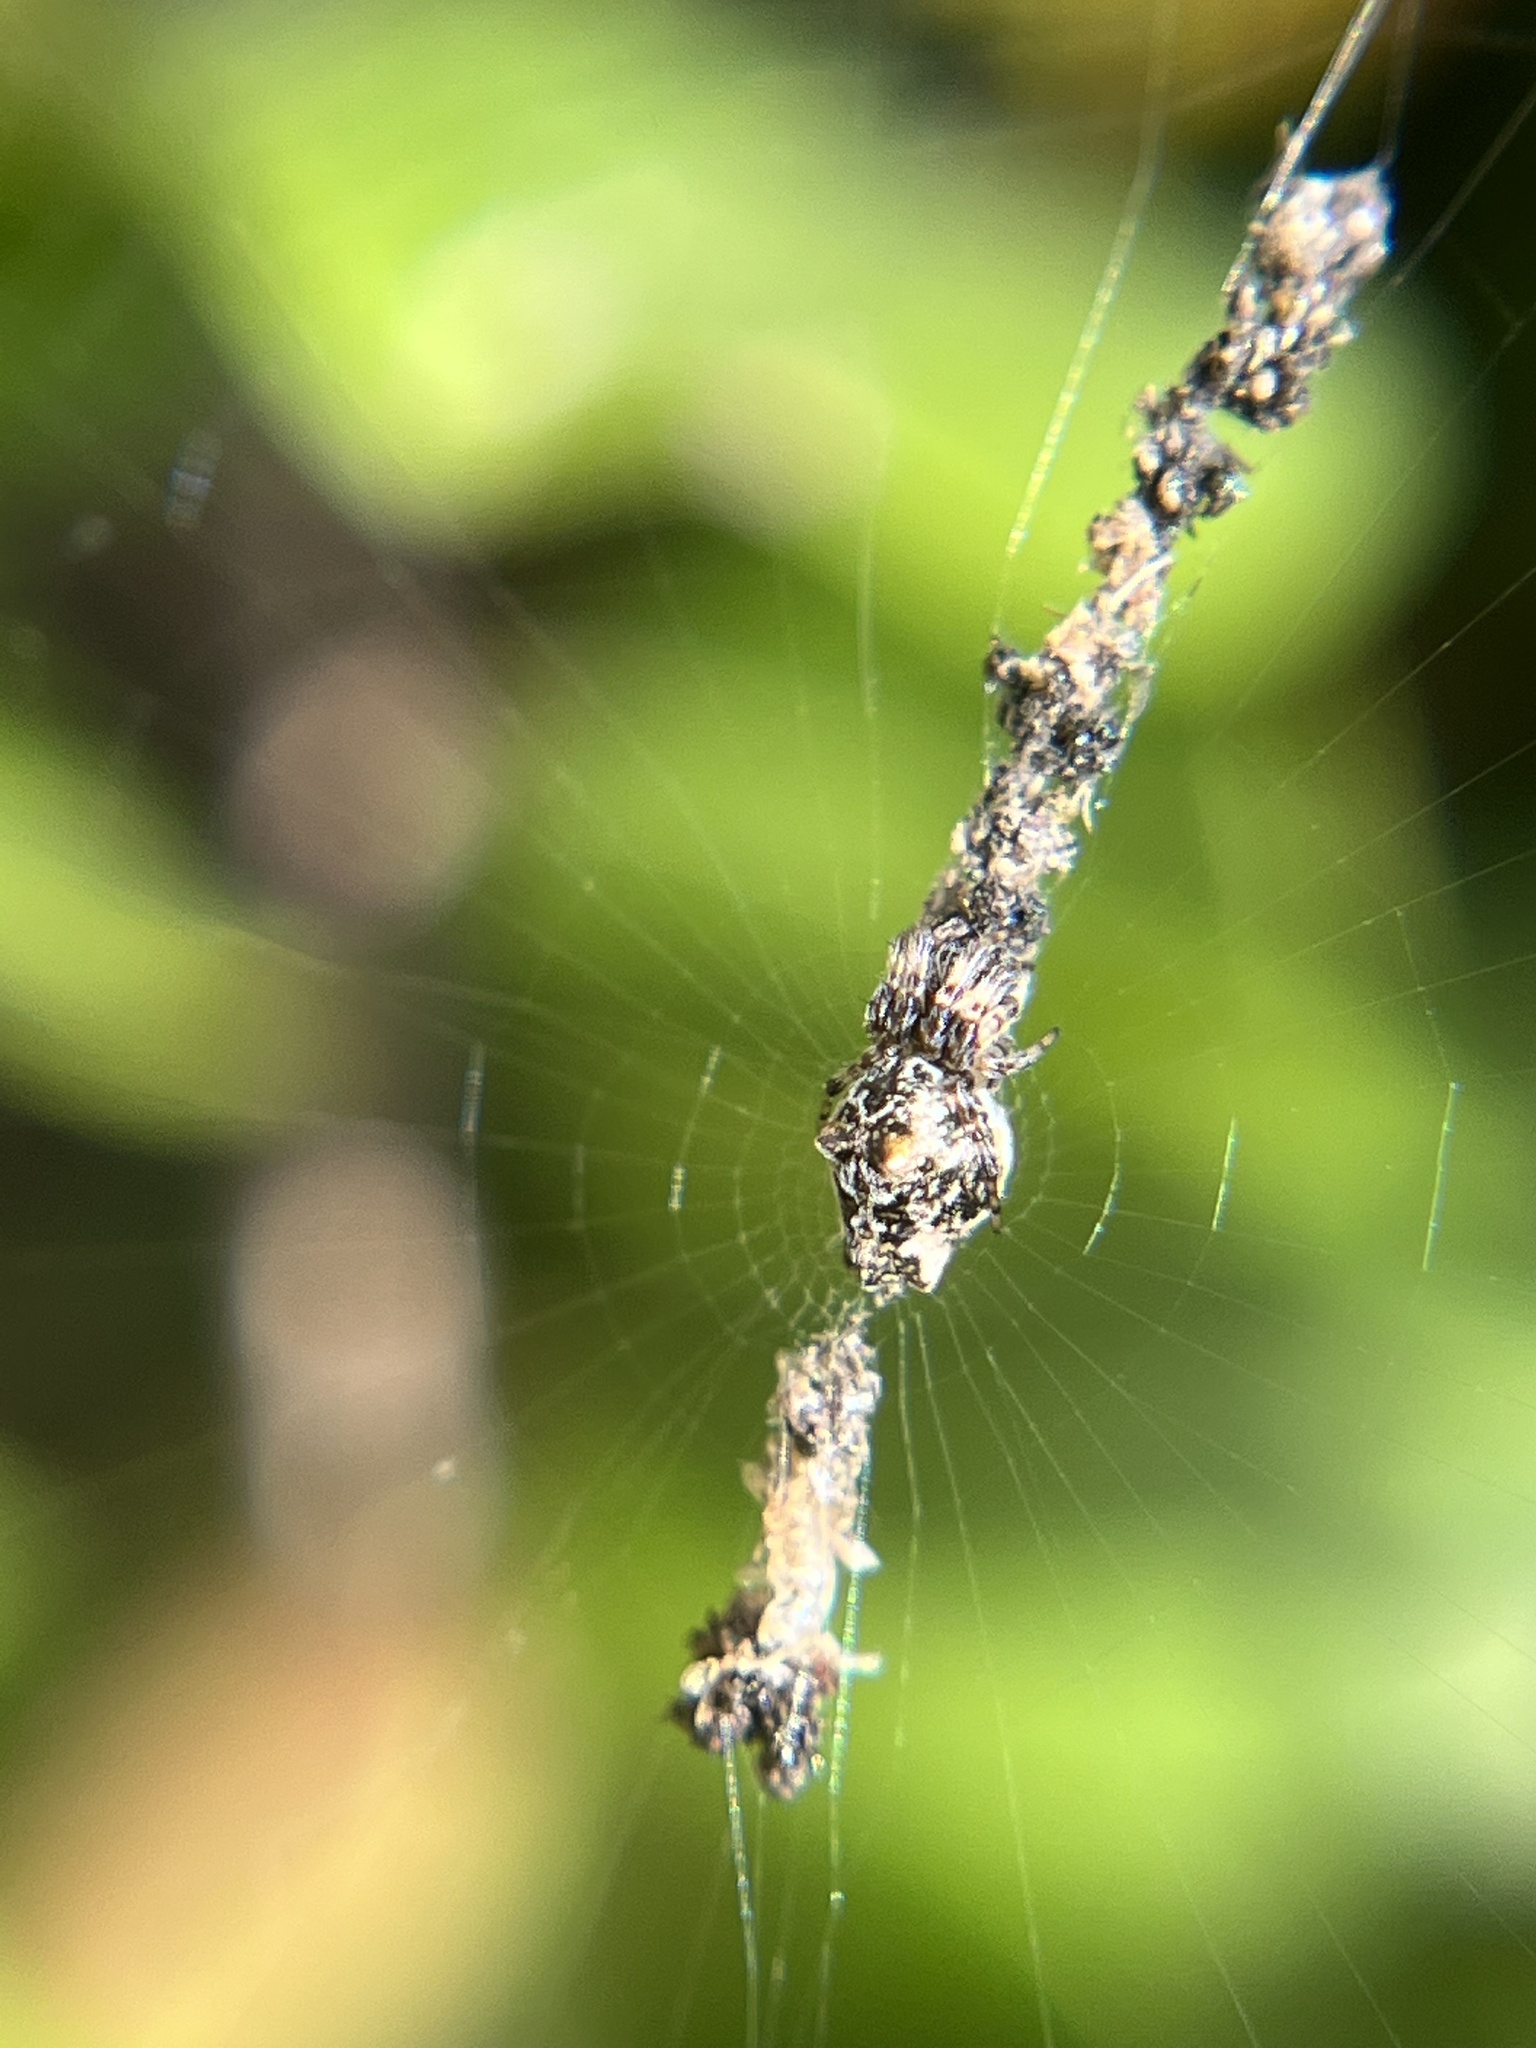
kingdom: Animalia
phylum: Arthropoda
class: Arachnida
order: Araneae
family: Araneidae
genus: Cyclosa
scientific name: Cyclosa walckenaeri
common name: Orb weavers
